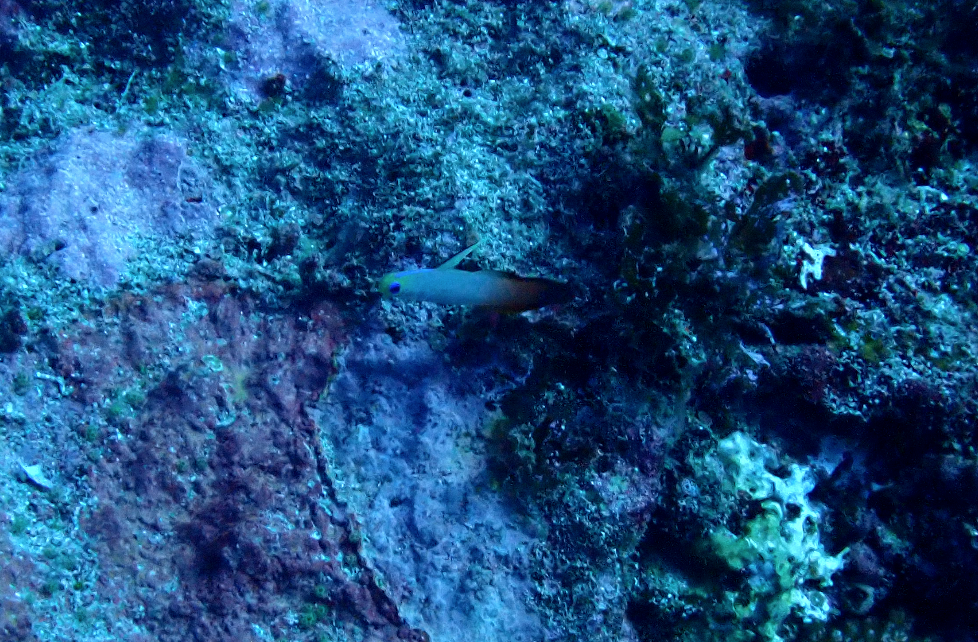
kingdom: Animalia
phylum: Chordata
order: Perciformes
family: Microdesmidae
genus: Nemateleotris
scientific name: Nemateleotris magnifica
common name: Fire goby
